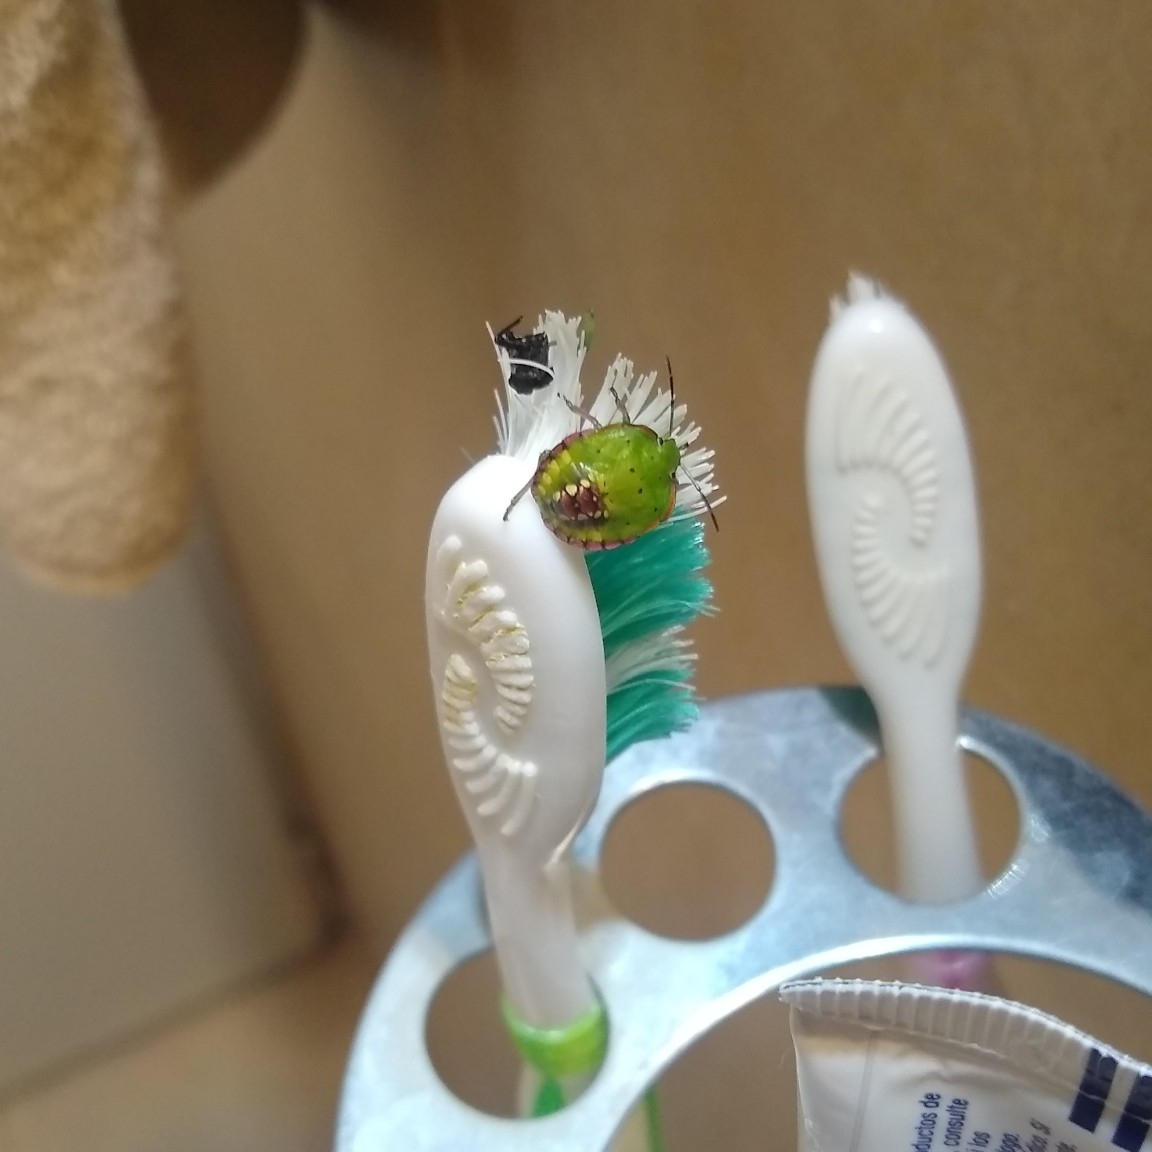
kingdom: Animalia
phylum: Arthropoda
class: Insecta
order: Hemiptera
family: Pentatomidae
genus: Nezara
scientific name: Nezara viridula
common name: Southern green stink bug
